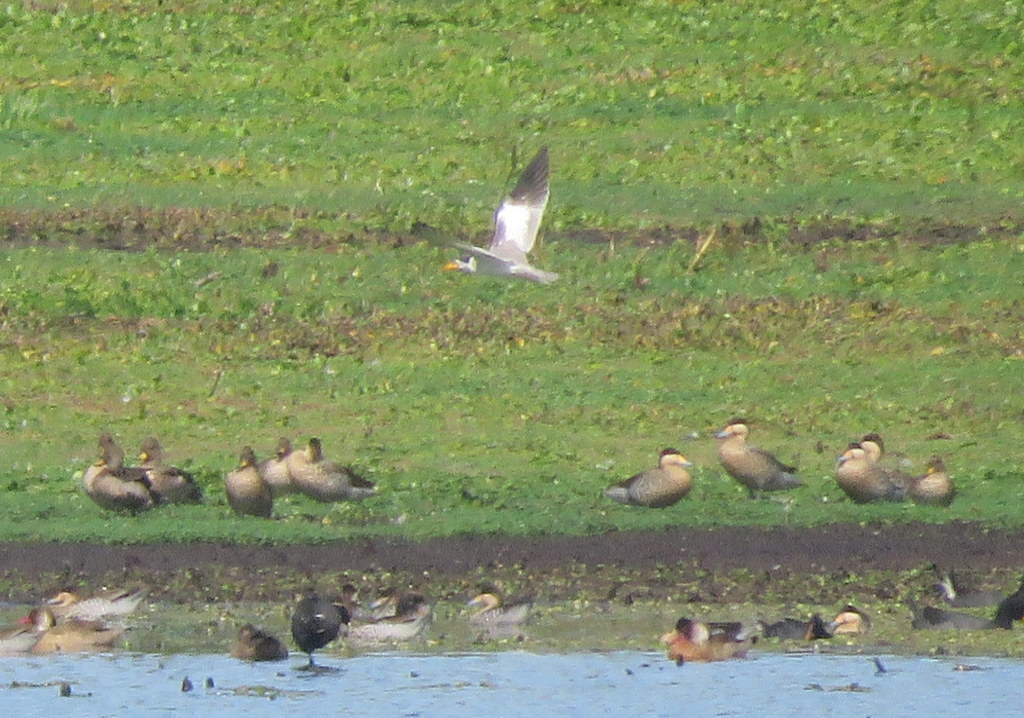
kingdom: Animalia
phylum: Chordata
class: Aves
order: Anseriformes
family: Anatidae
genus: Spatula
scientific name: Spatula versicolor
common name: Silver teal
